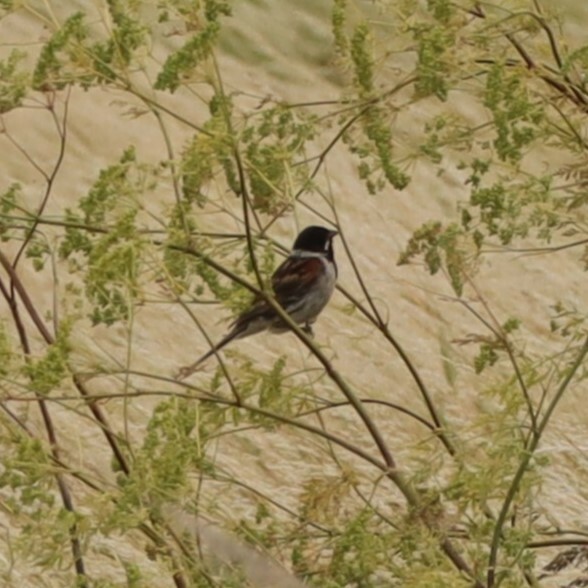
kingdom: Animalia
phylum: Chordata
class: Aves
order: Passeriformes
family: Emberizidae
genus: Emberiza
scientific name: Emberiza schoeniclus
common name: Reed bunting
